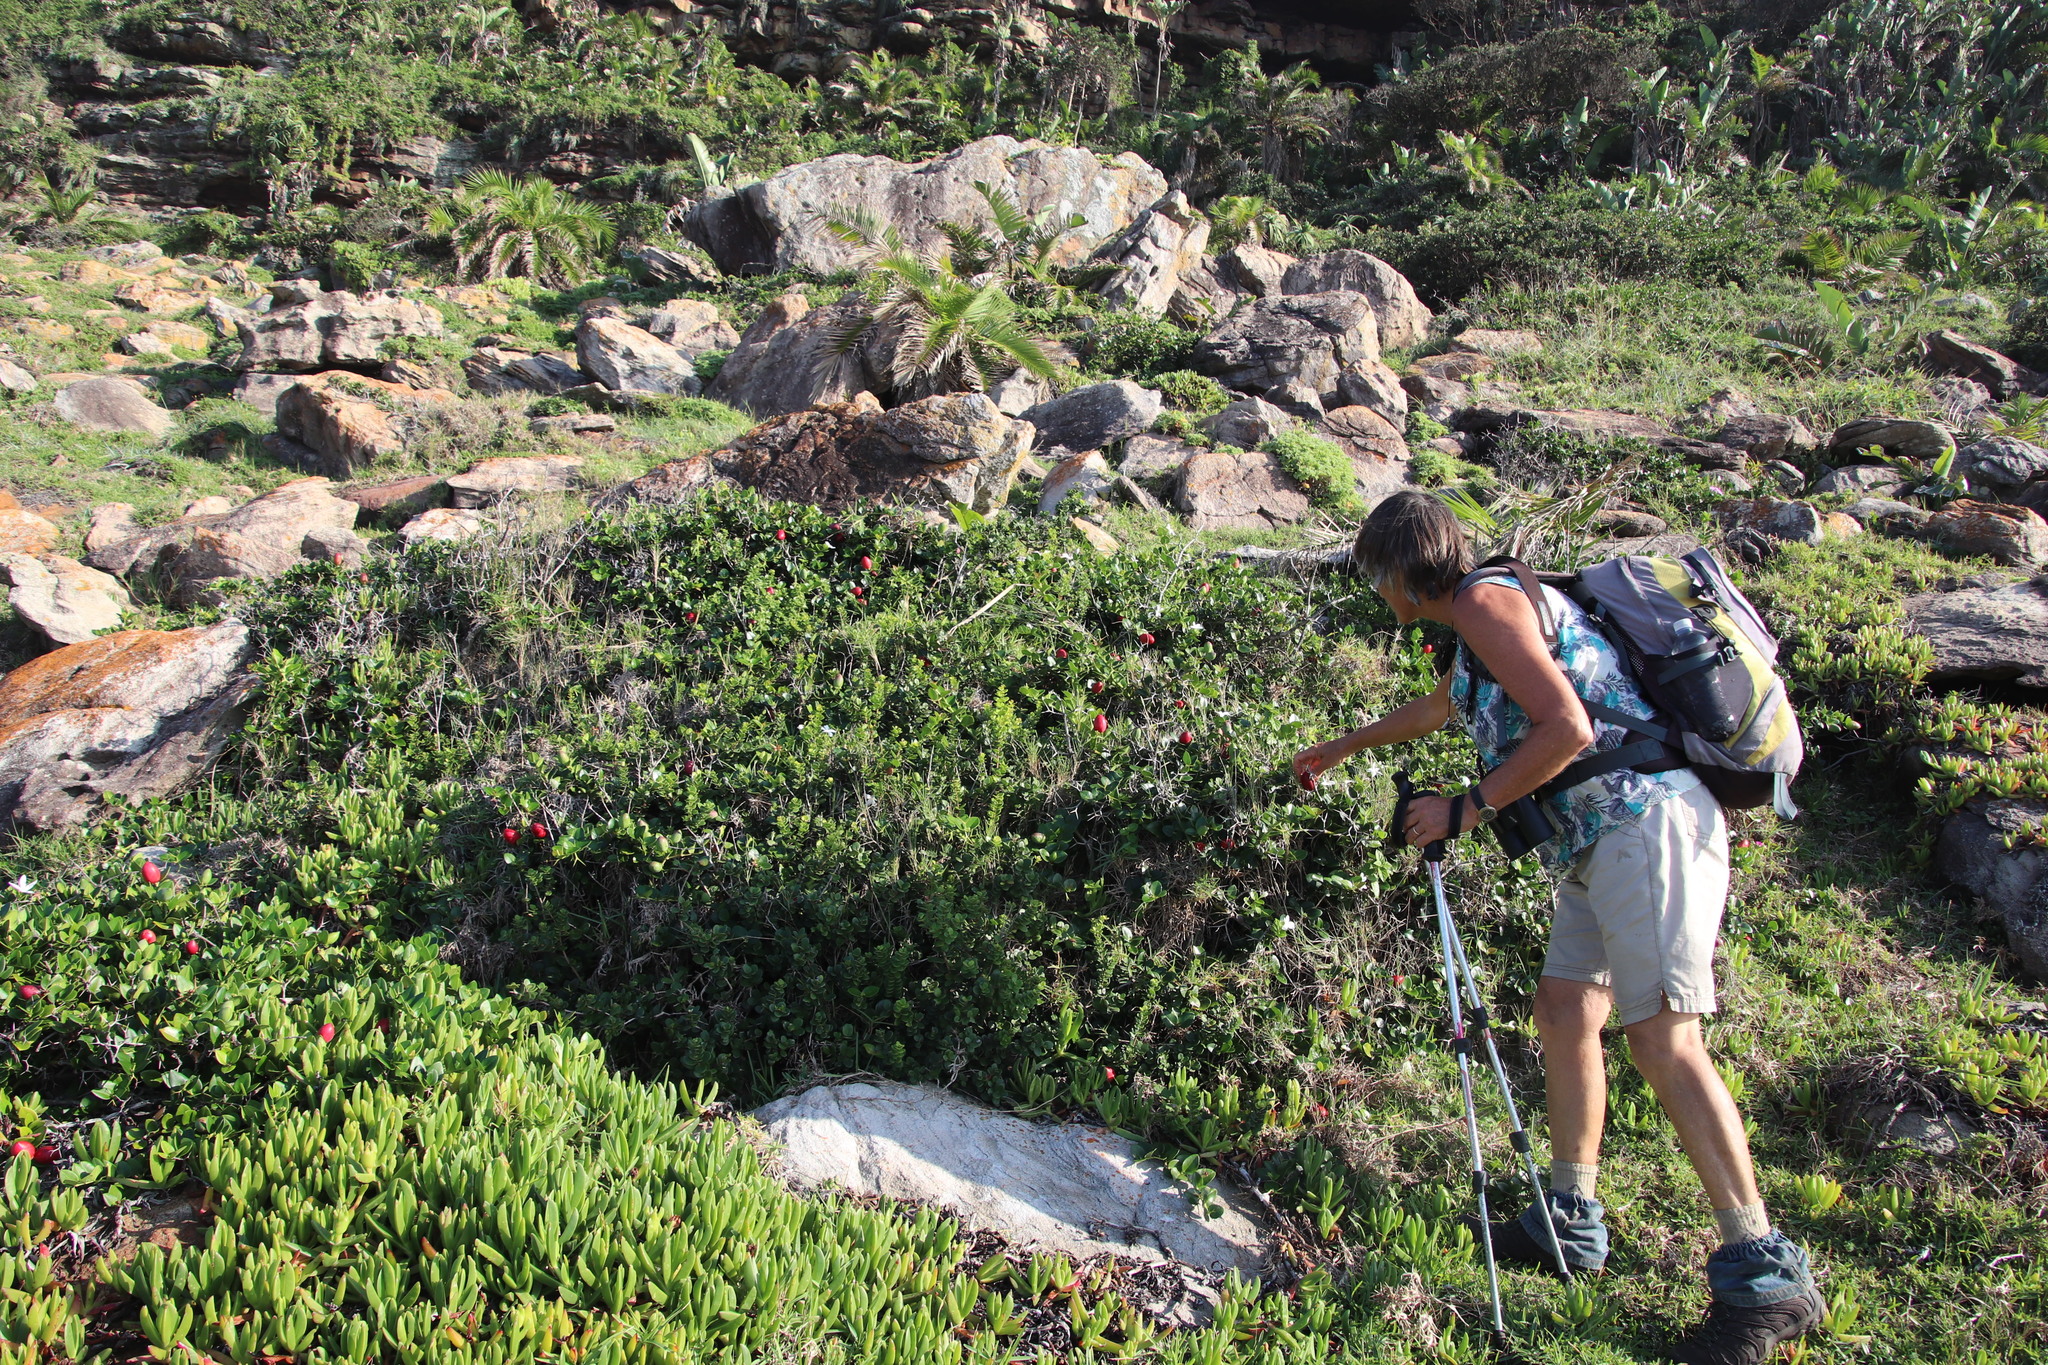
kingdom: Plantae
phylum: Tracheophyta
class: Magnoliopsida
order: Gentianales
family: Apocynaceae
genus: Carissa
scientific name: Carissa macrocarpa
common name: Natal plum
